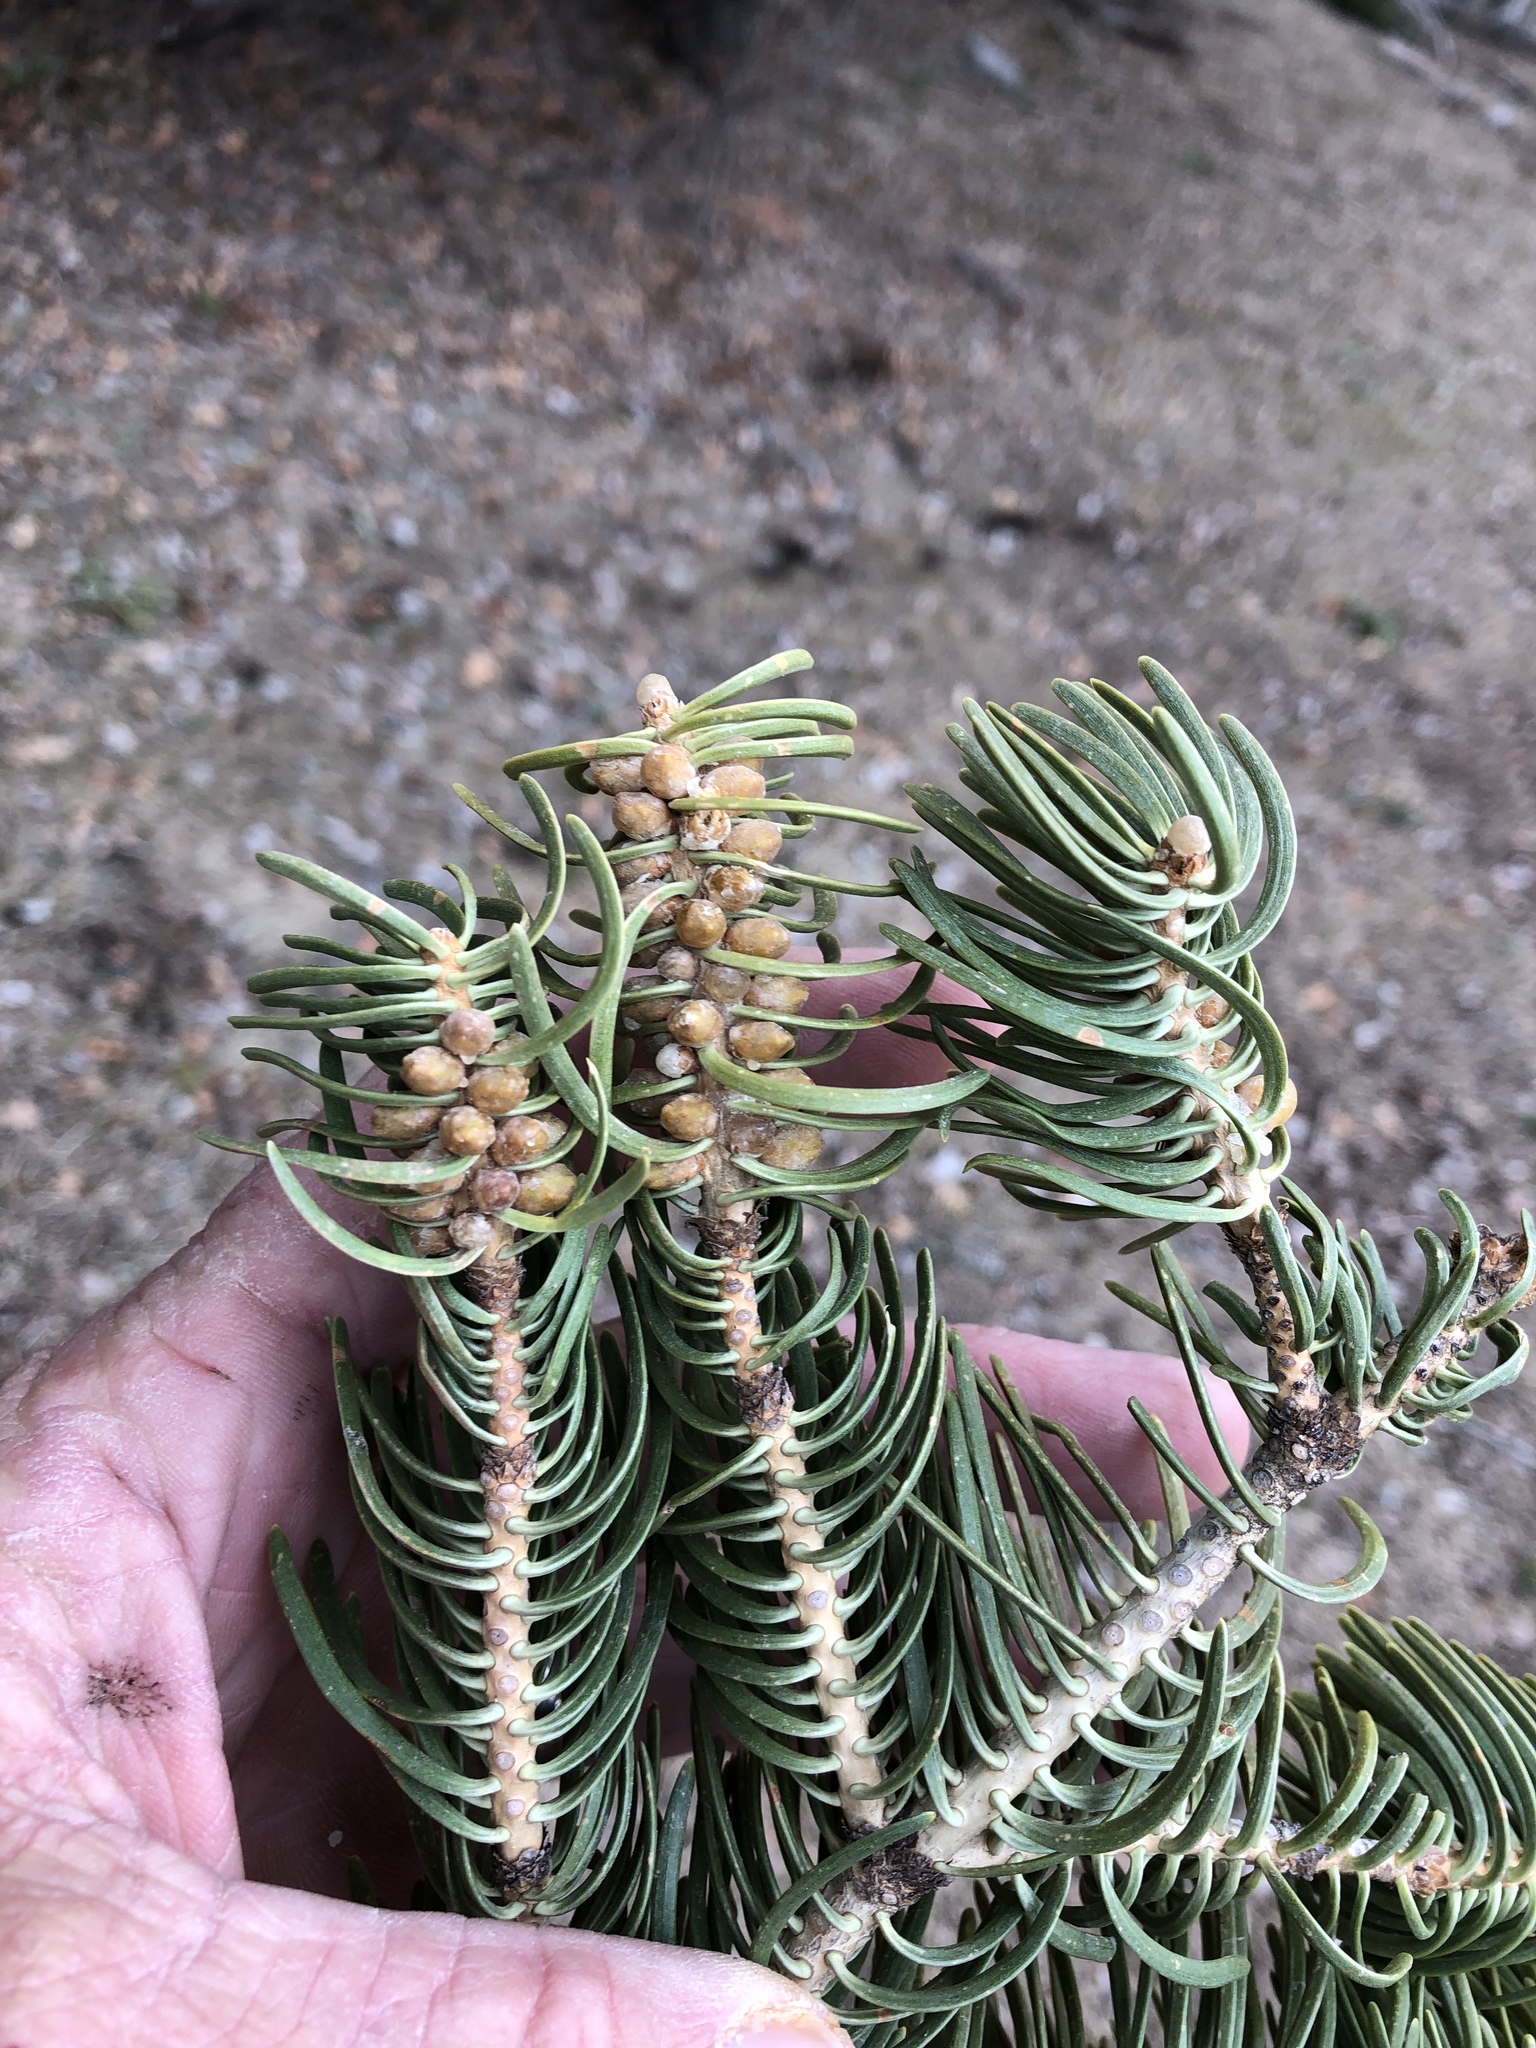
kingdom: Plantae
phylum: Tracheophyta
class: Pinopsida
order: Pinales
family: Pinaceae
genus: Abies
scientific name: Abies concolor
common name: Colorado fir
